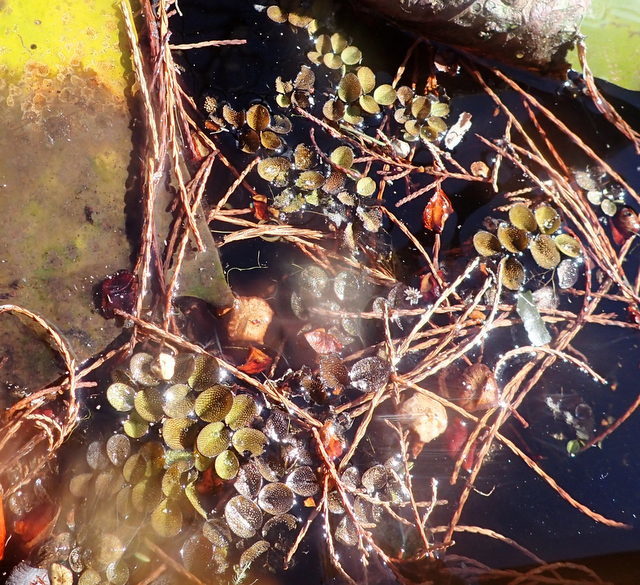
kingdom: Plantae
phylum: Tracheophyta
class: Polypodiopsida
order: Salviniales
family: Salviniaceae
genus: Salvinia
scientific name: Salvinia minima
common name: Water spangles
